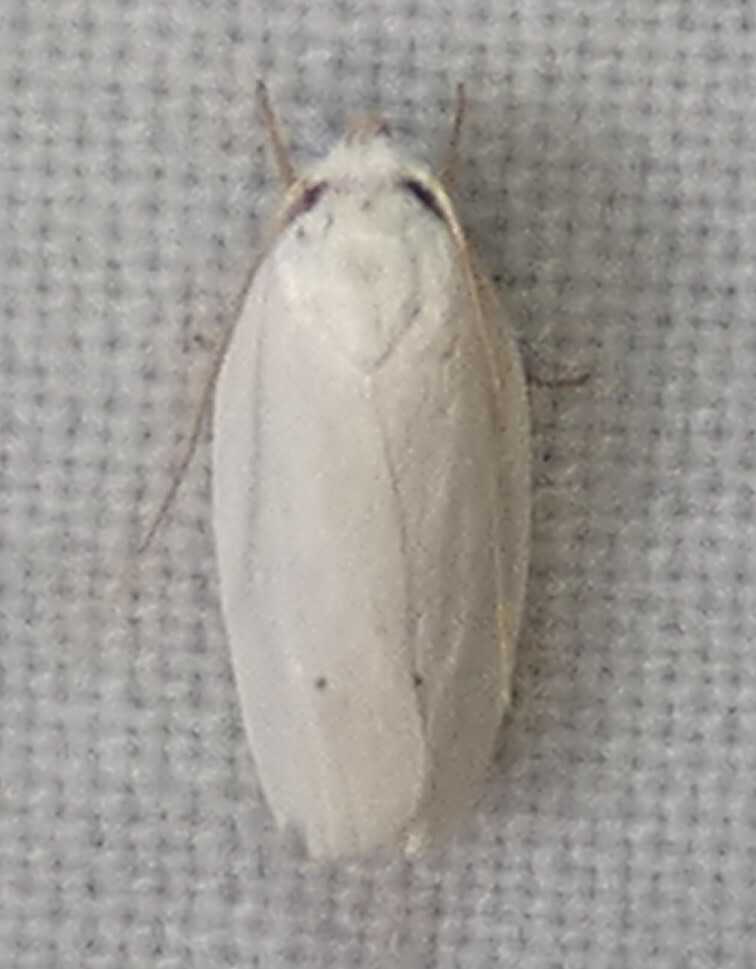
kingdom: Animalia
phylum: Arthropoda
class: Insecta
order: Lepidoptera
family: Depressariidae
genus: Antaeotricha
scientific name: Antaeotricha albulella
